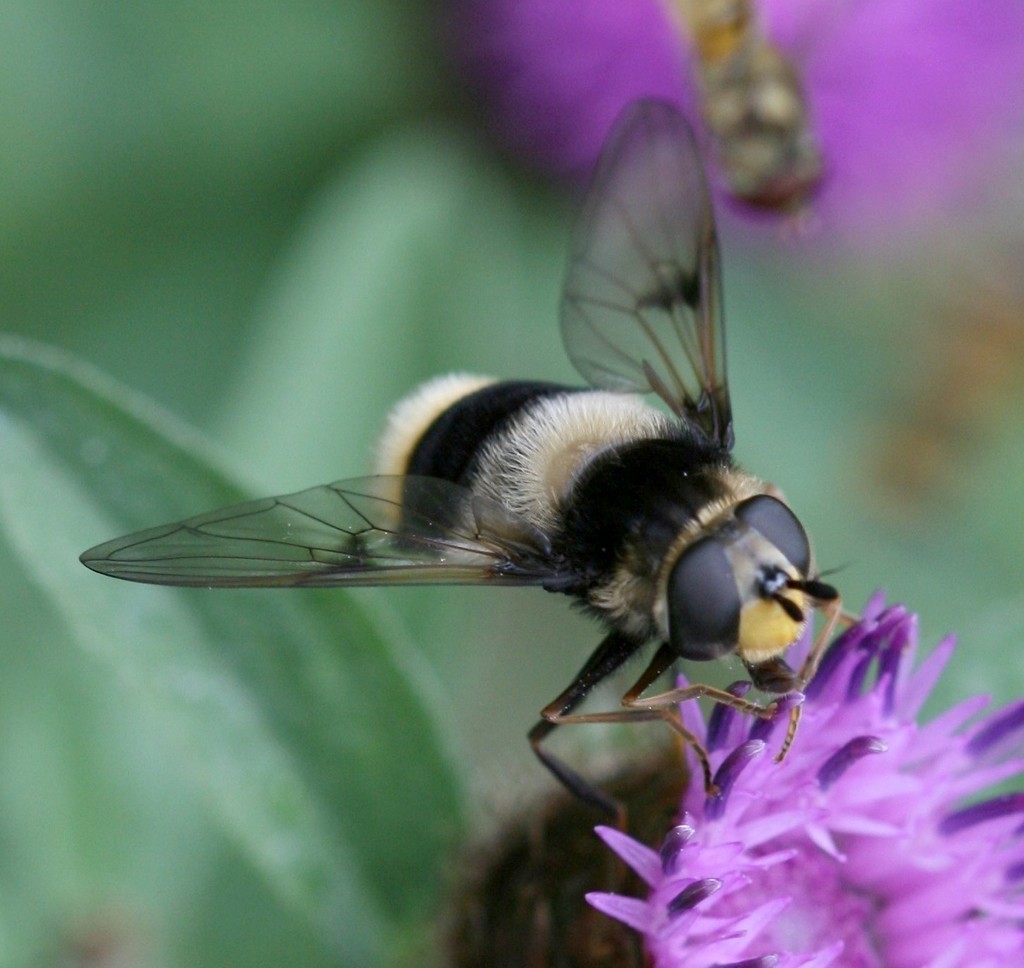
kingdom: Animalia
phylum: Arthropoda
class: Insecta
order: Diptera
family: Syrphidae
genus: Eriozona
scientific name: Eriozona syrphoides
